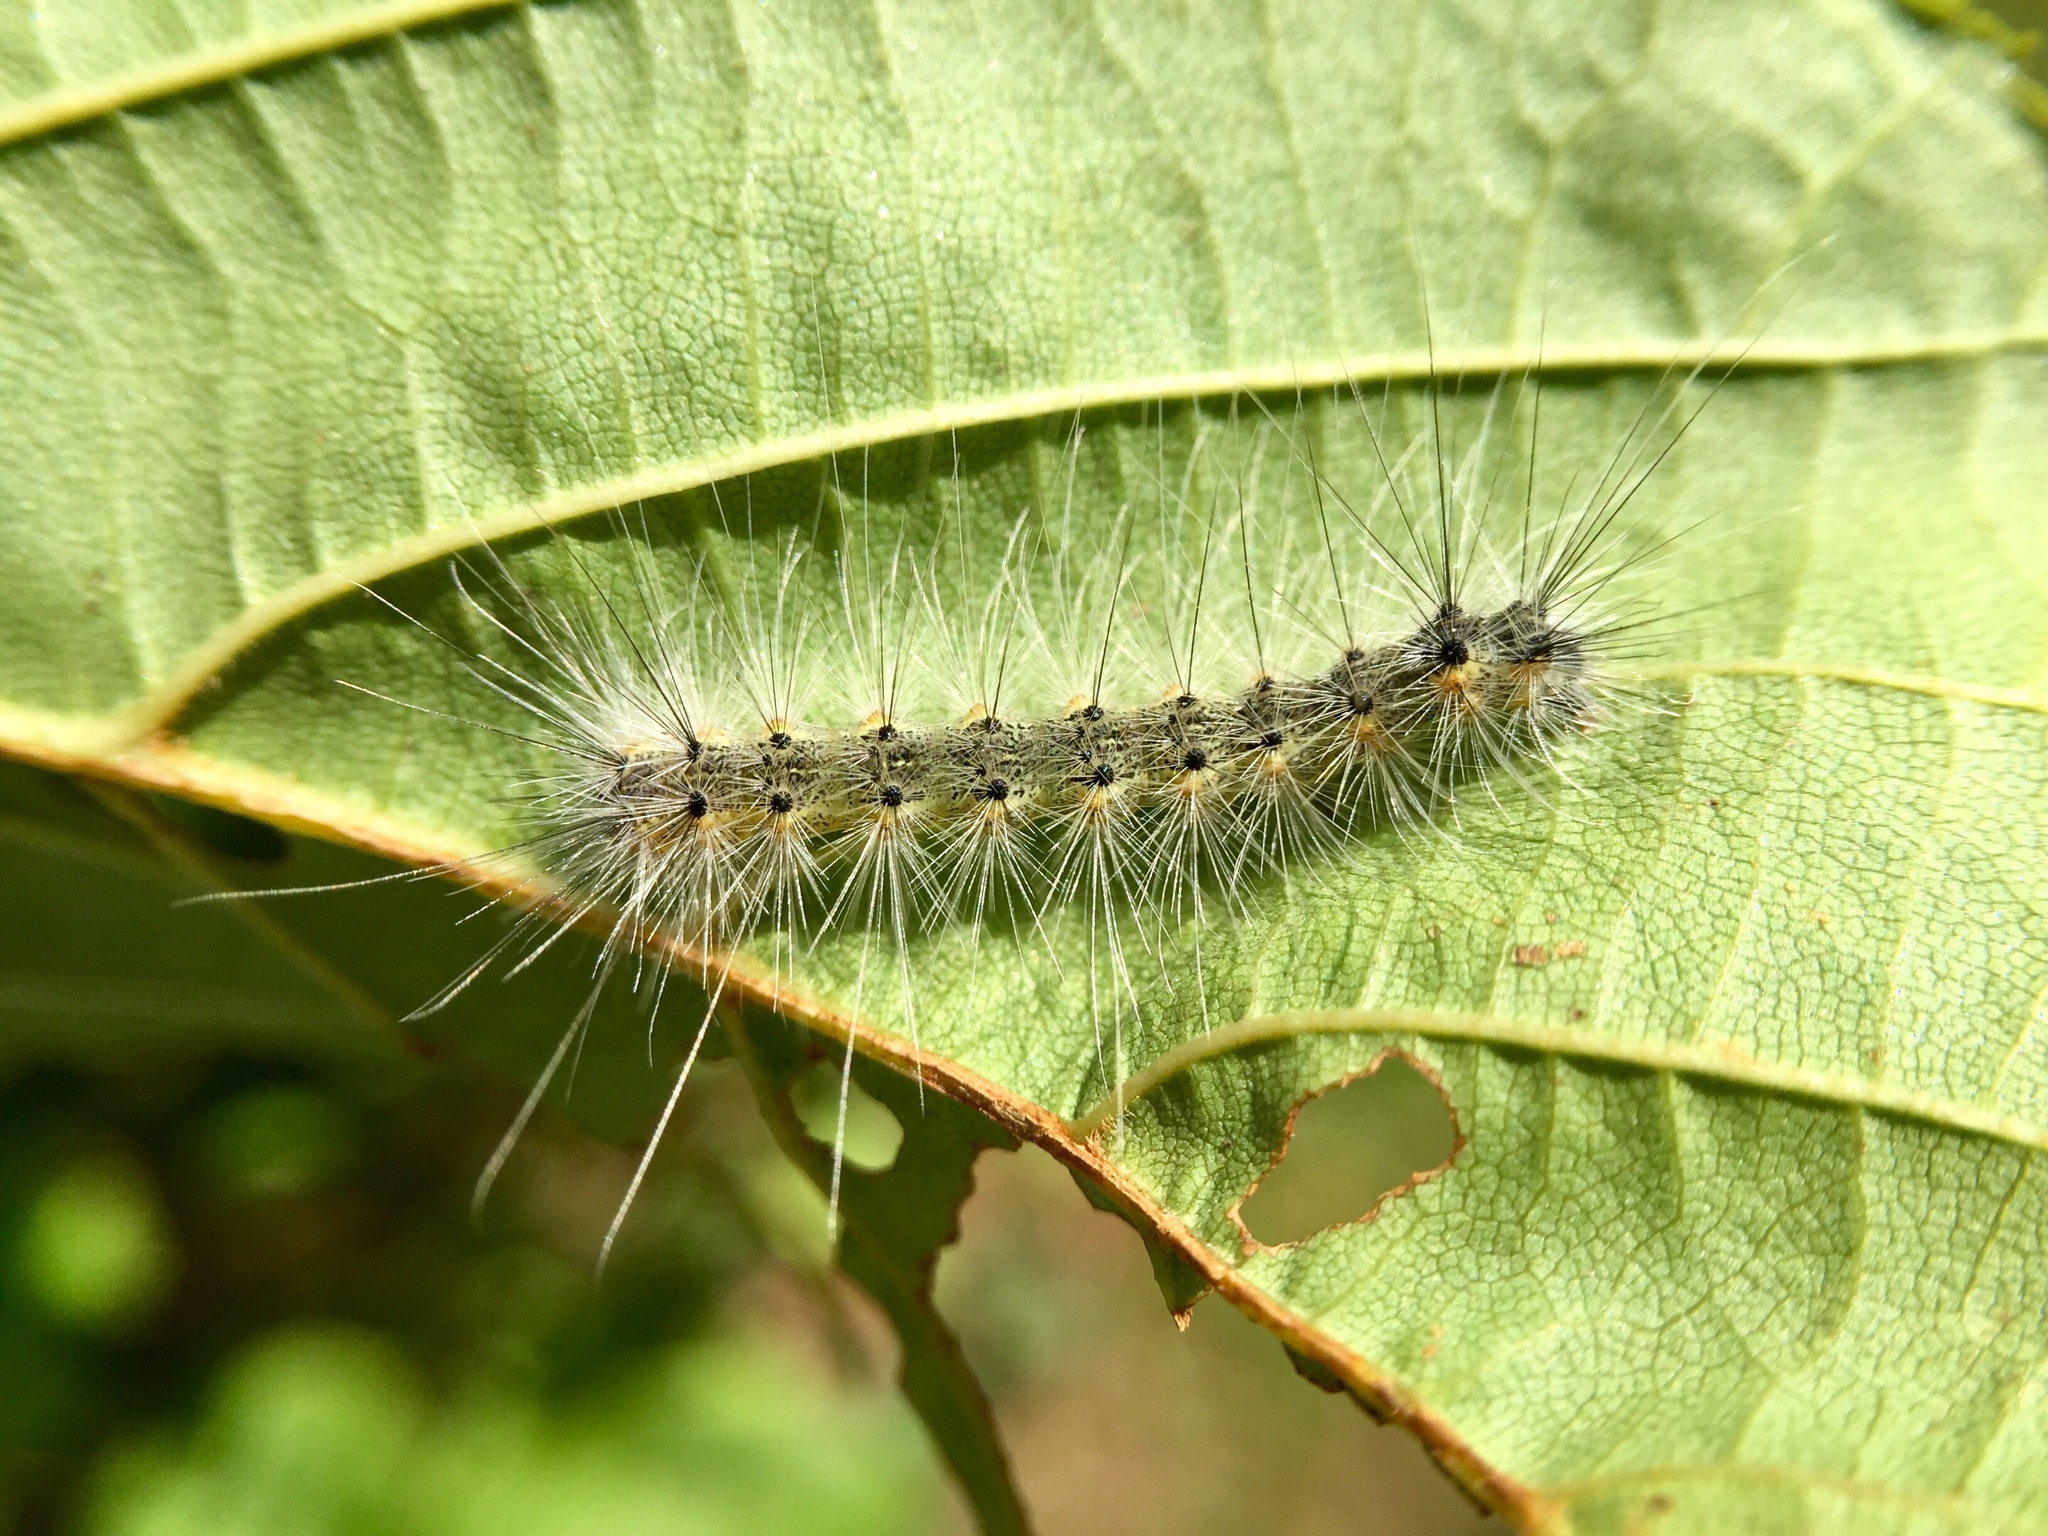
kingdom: Animalia
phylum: Arthropoda
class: Insecta
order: Lepidoptera
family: Erebidae
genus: Hyphantria
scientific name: Hyphantria cunea
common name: American white moth
